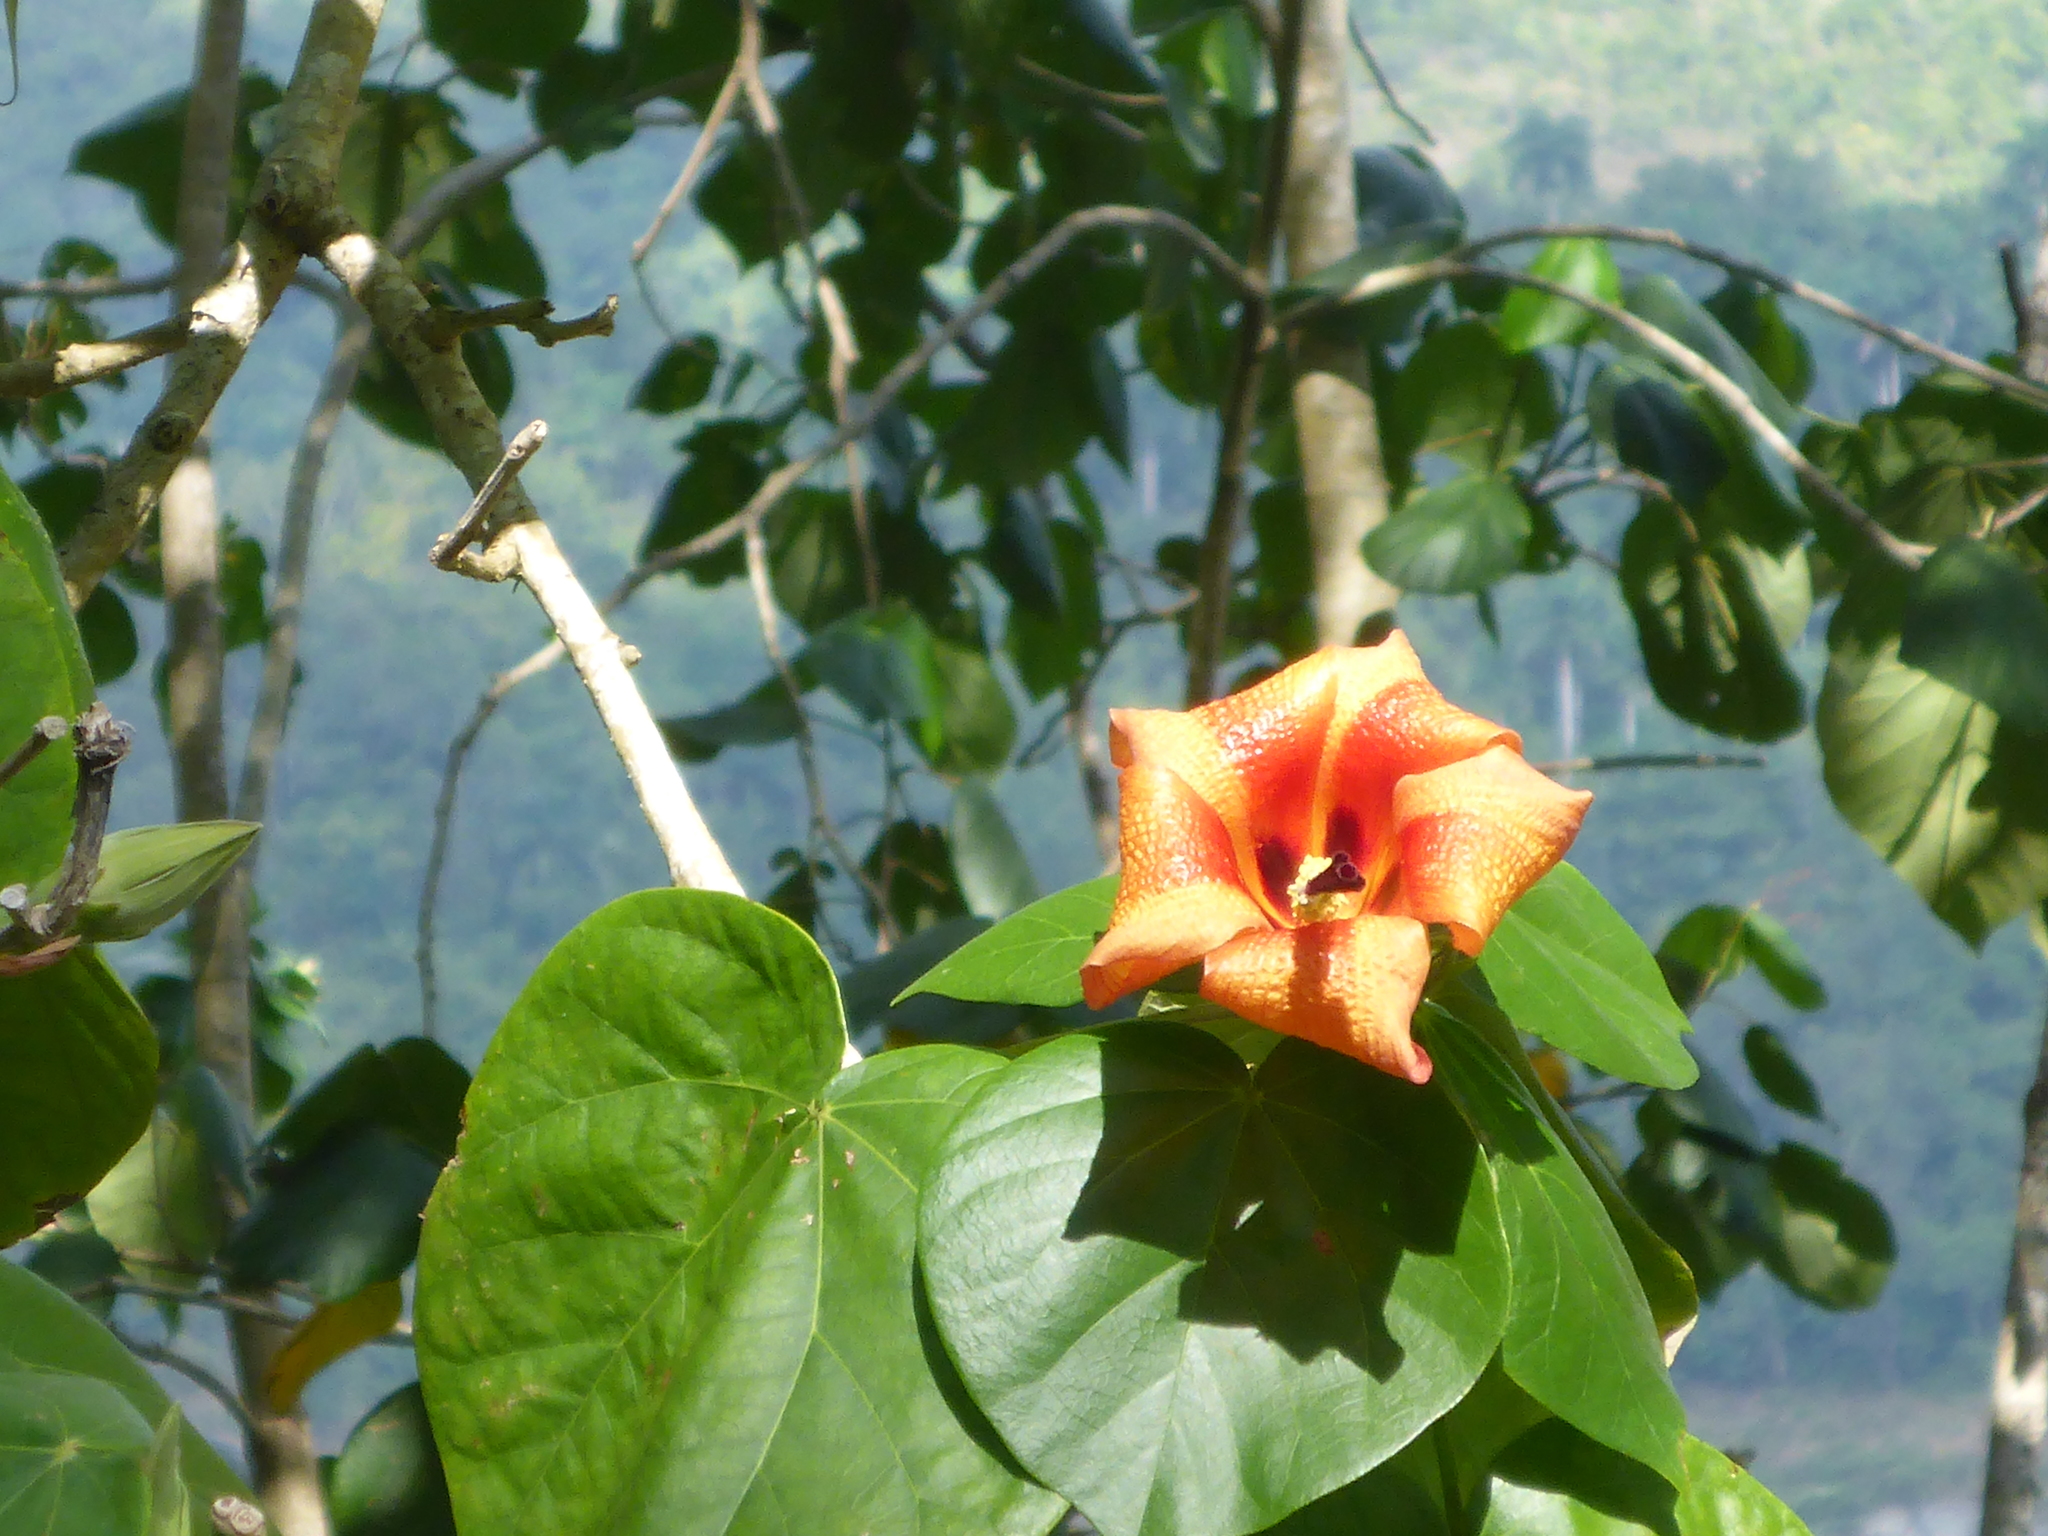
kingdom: Plantae
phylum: Tracheophyta
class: Magnoliopsida
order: Malvales
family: Malvaceae
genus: Talipariti
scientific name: Talipariti
